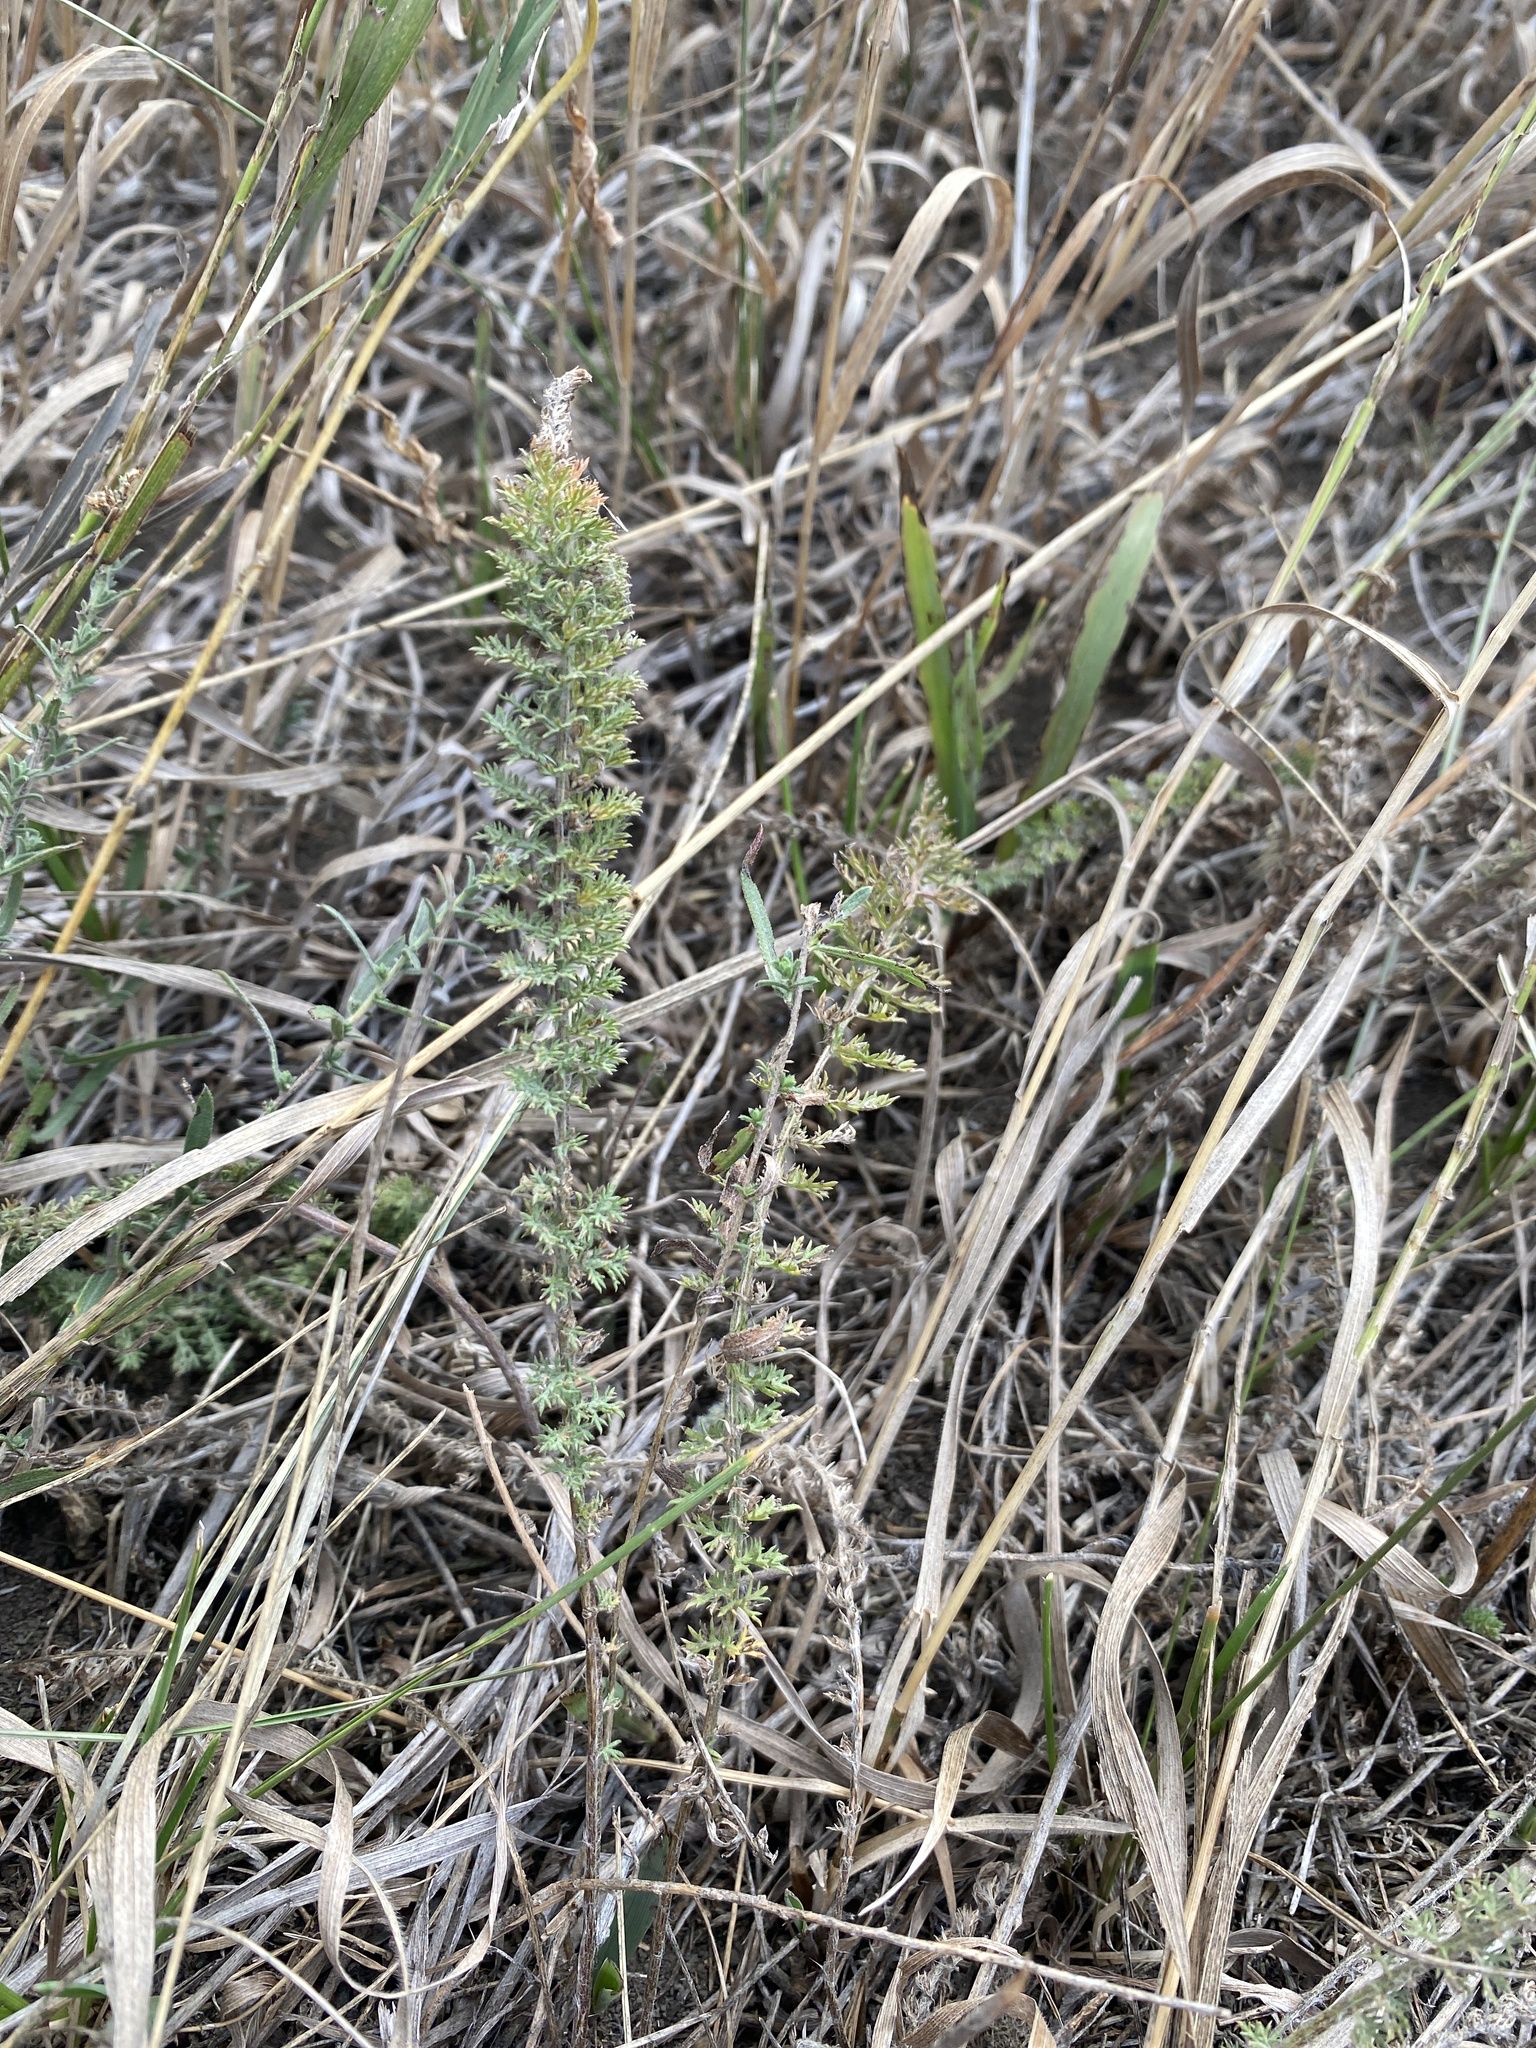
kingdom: Plantae
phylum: Tracheophyta
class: Magnoliopsida
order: Asterales
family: Asteraceae
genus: Achillea
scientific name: Achillea millefolium
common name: Yarrow
